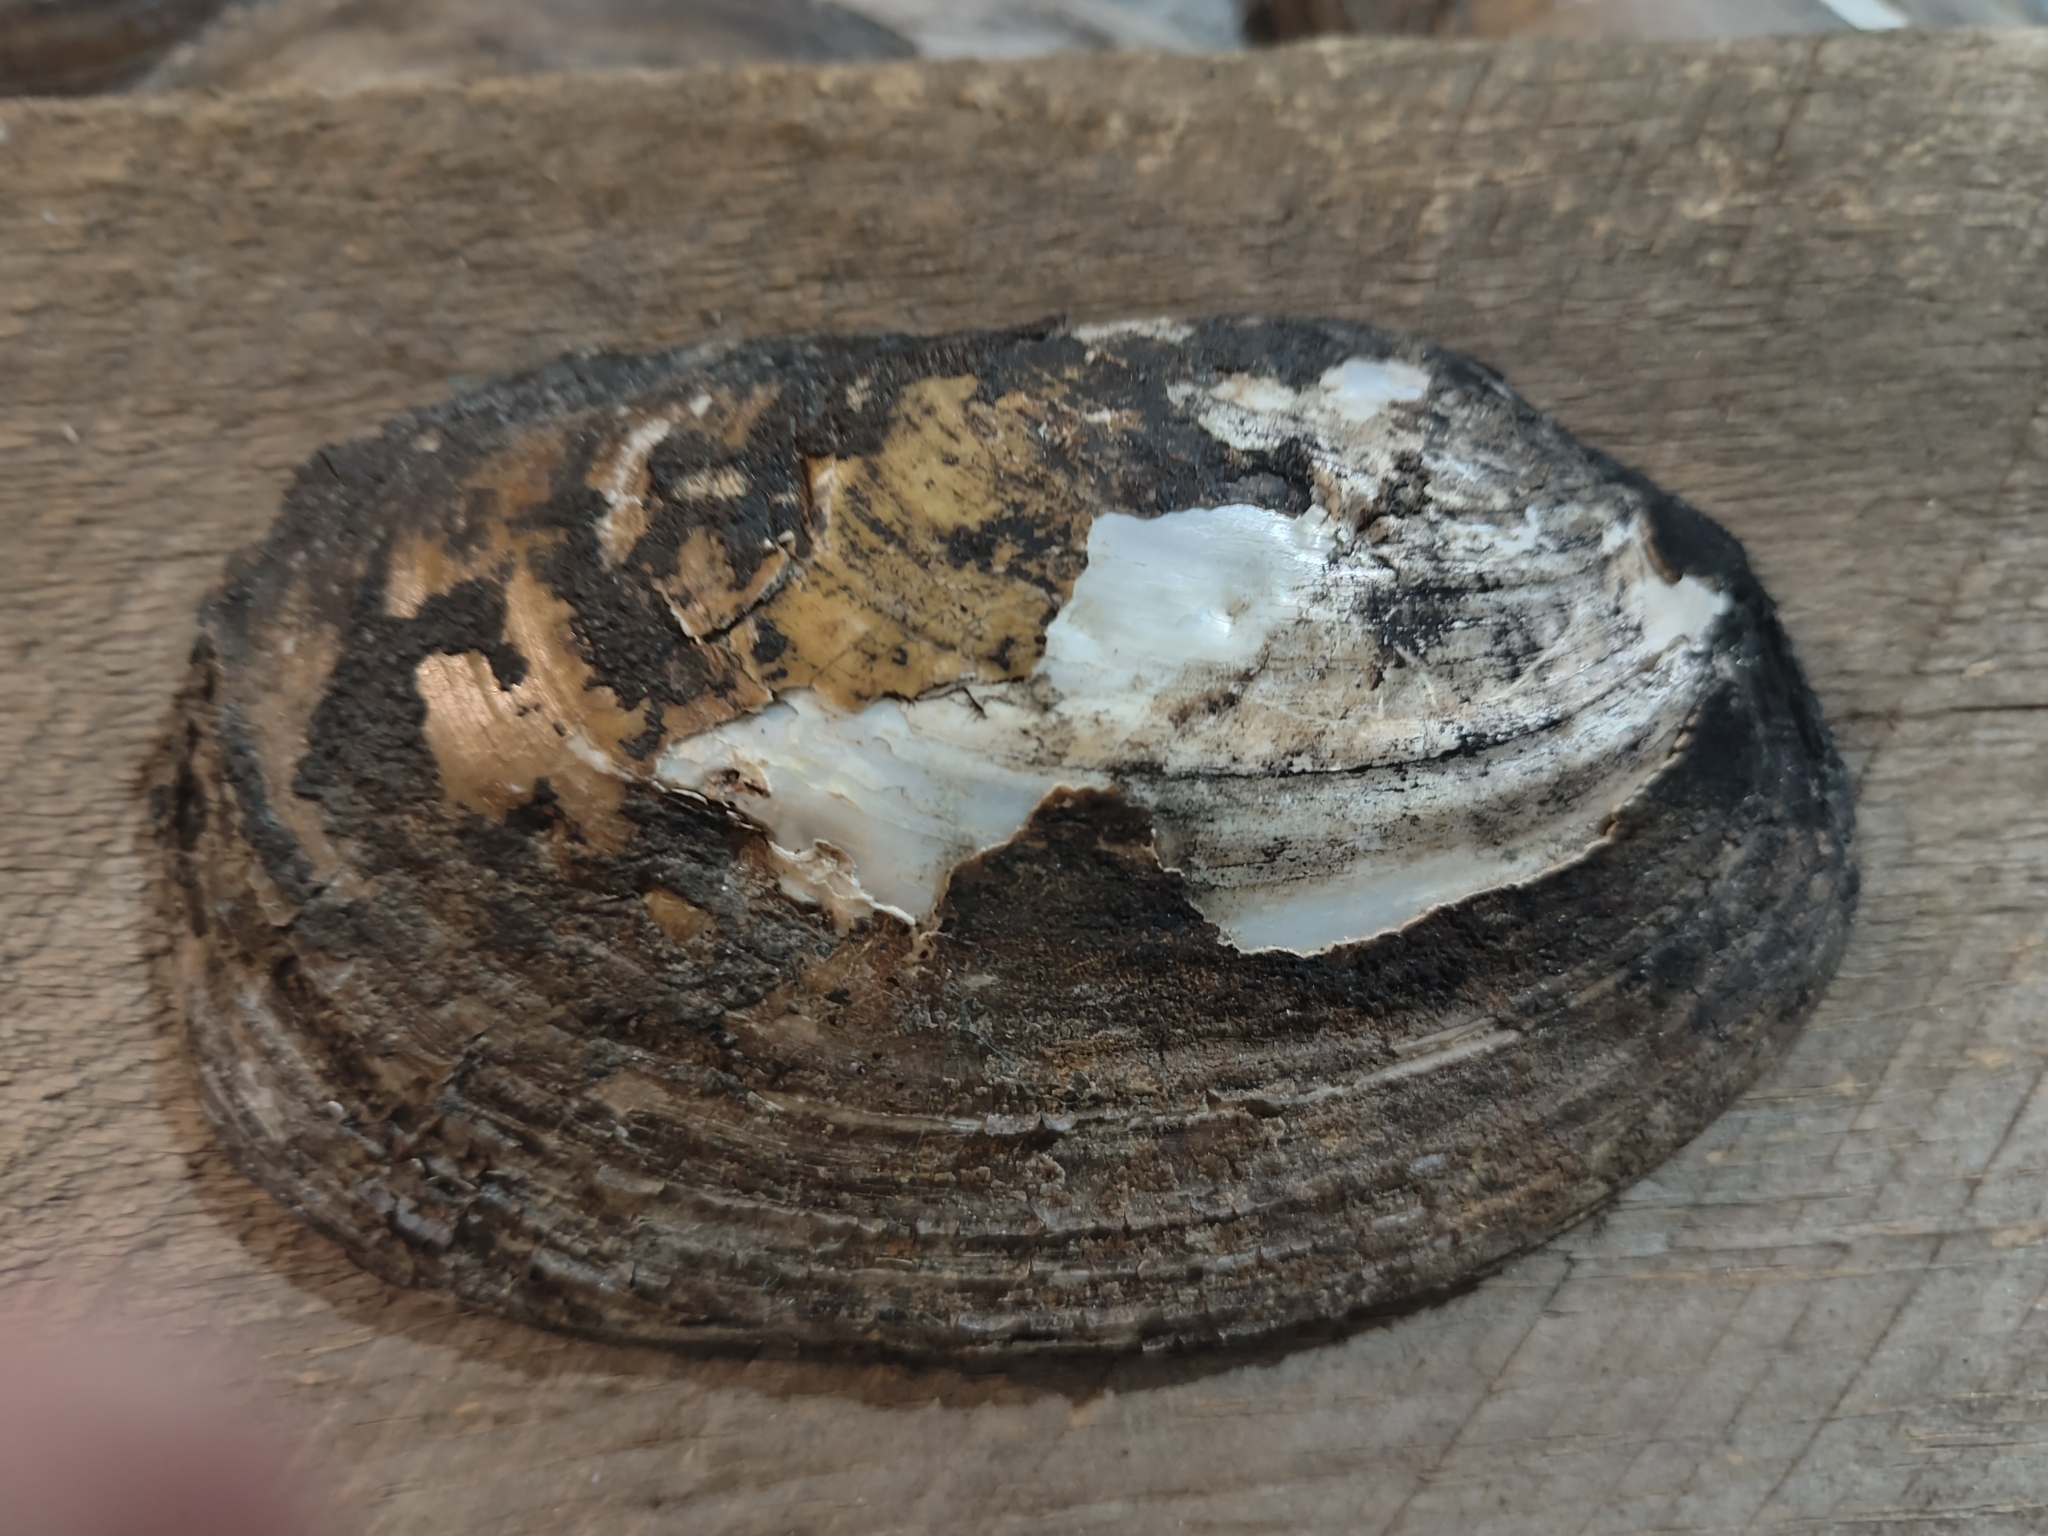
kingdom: Animalia
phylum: Mollusca
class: Bivalvia
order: Unionida
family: Unionidae
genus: Potamilus
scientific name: Potamilus fragilis
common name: Fragile papershell
